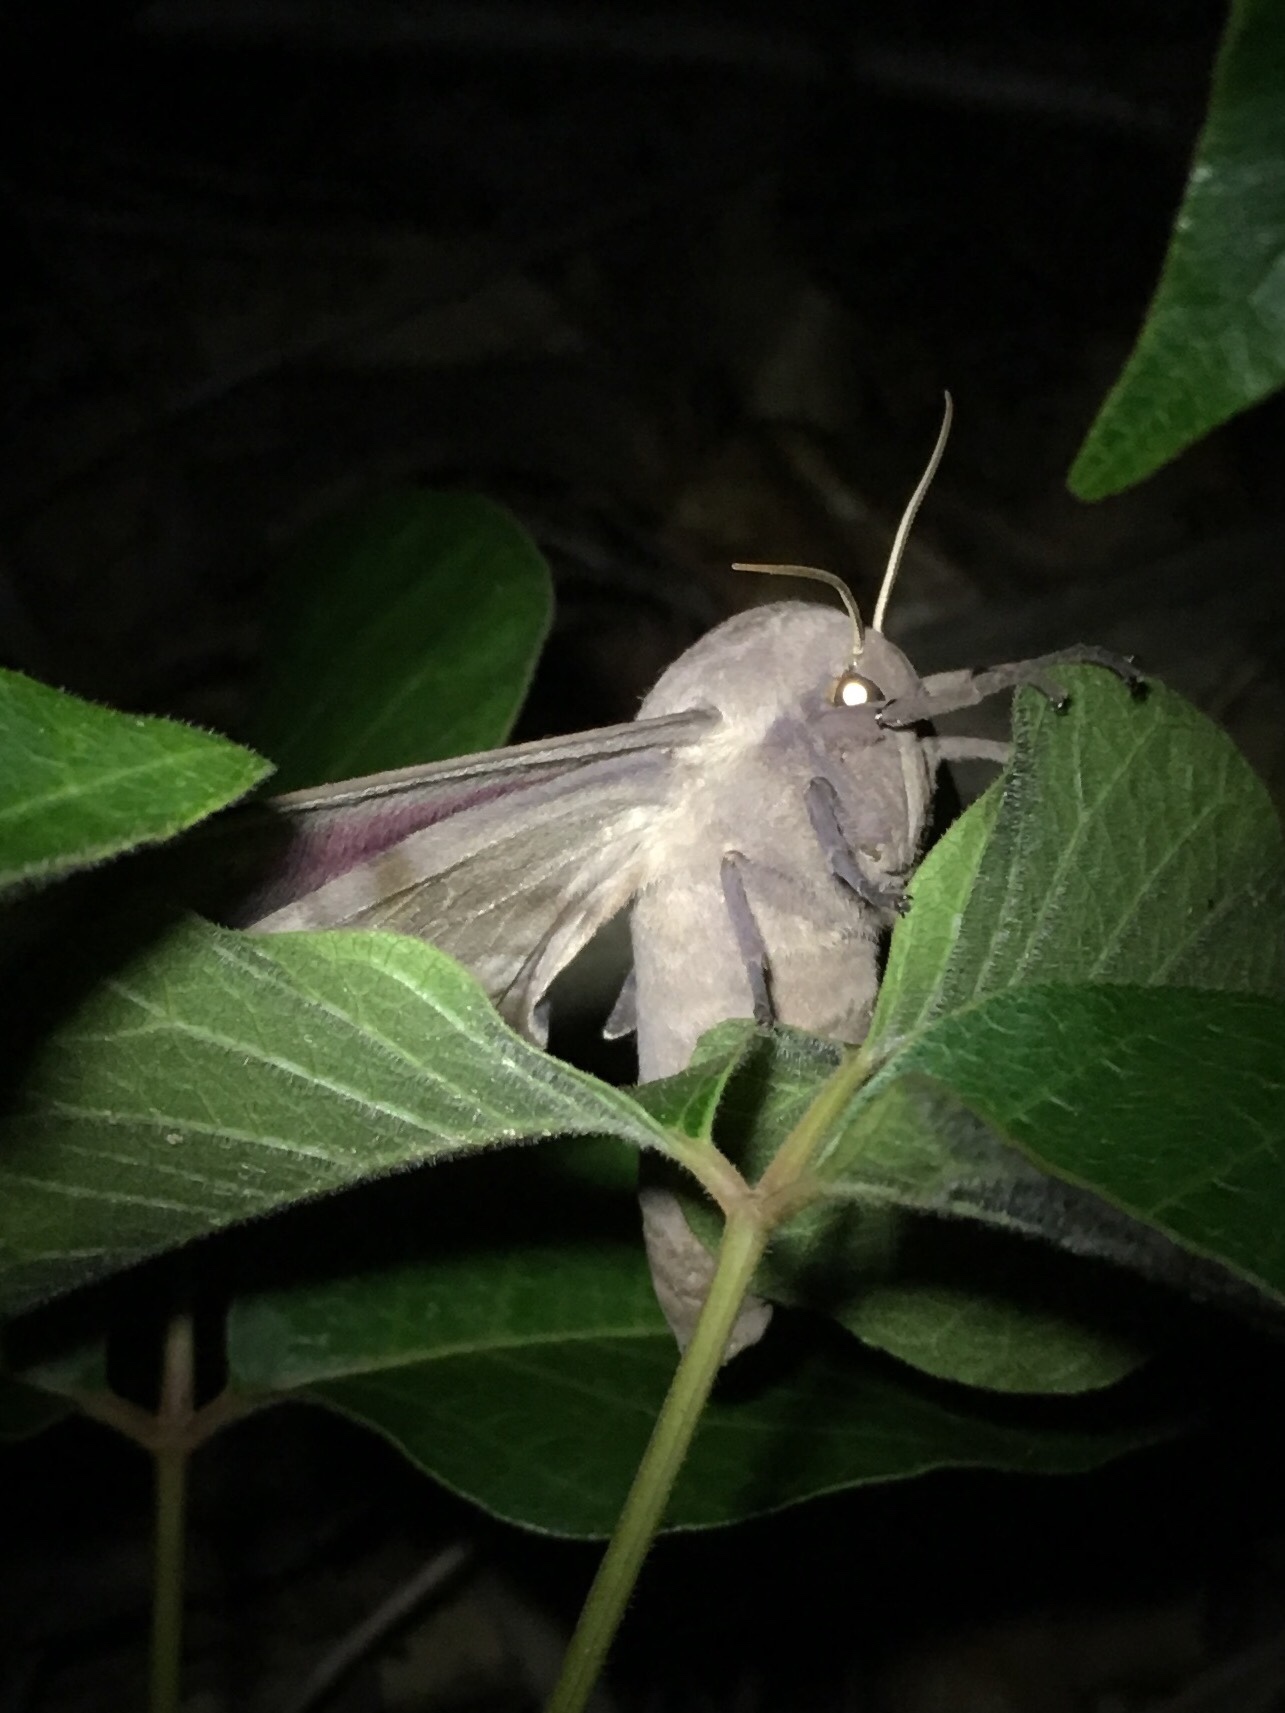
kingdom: Animalia
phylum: Arthropoda
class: Insecta
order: Lepidoptera
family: Sphingidae
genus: Pachysphinx
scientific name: Pachysphinx modesta
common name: Big poplar sphinx
